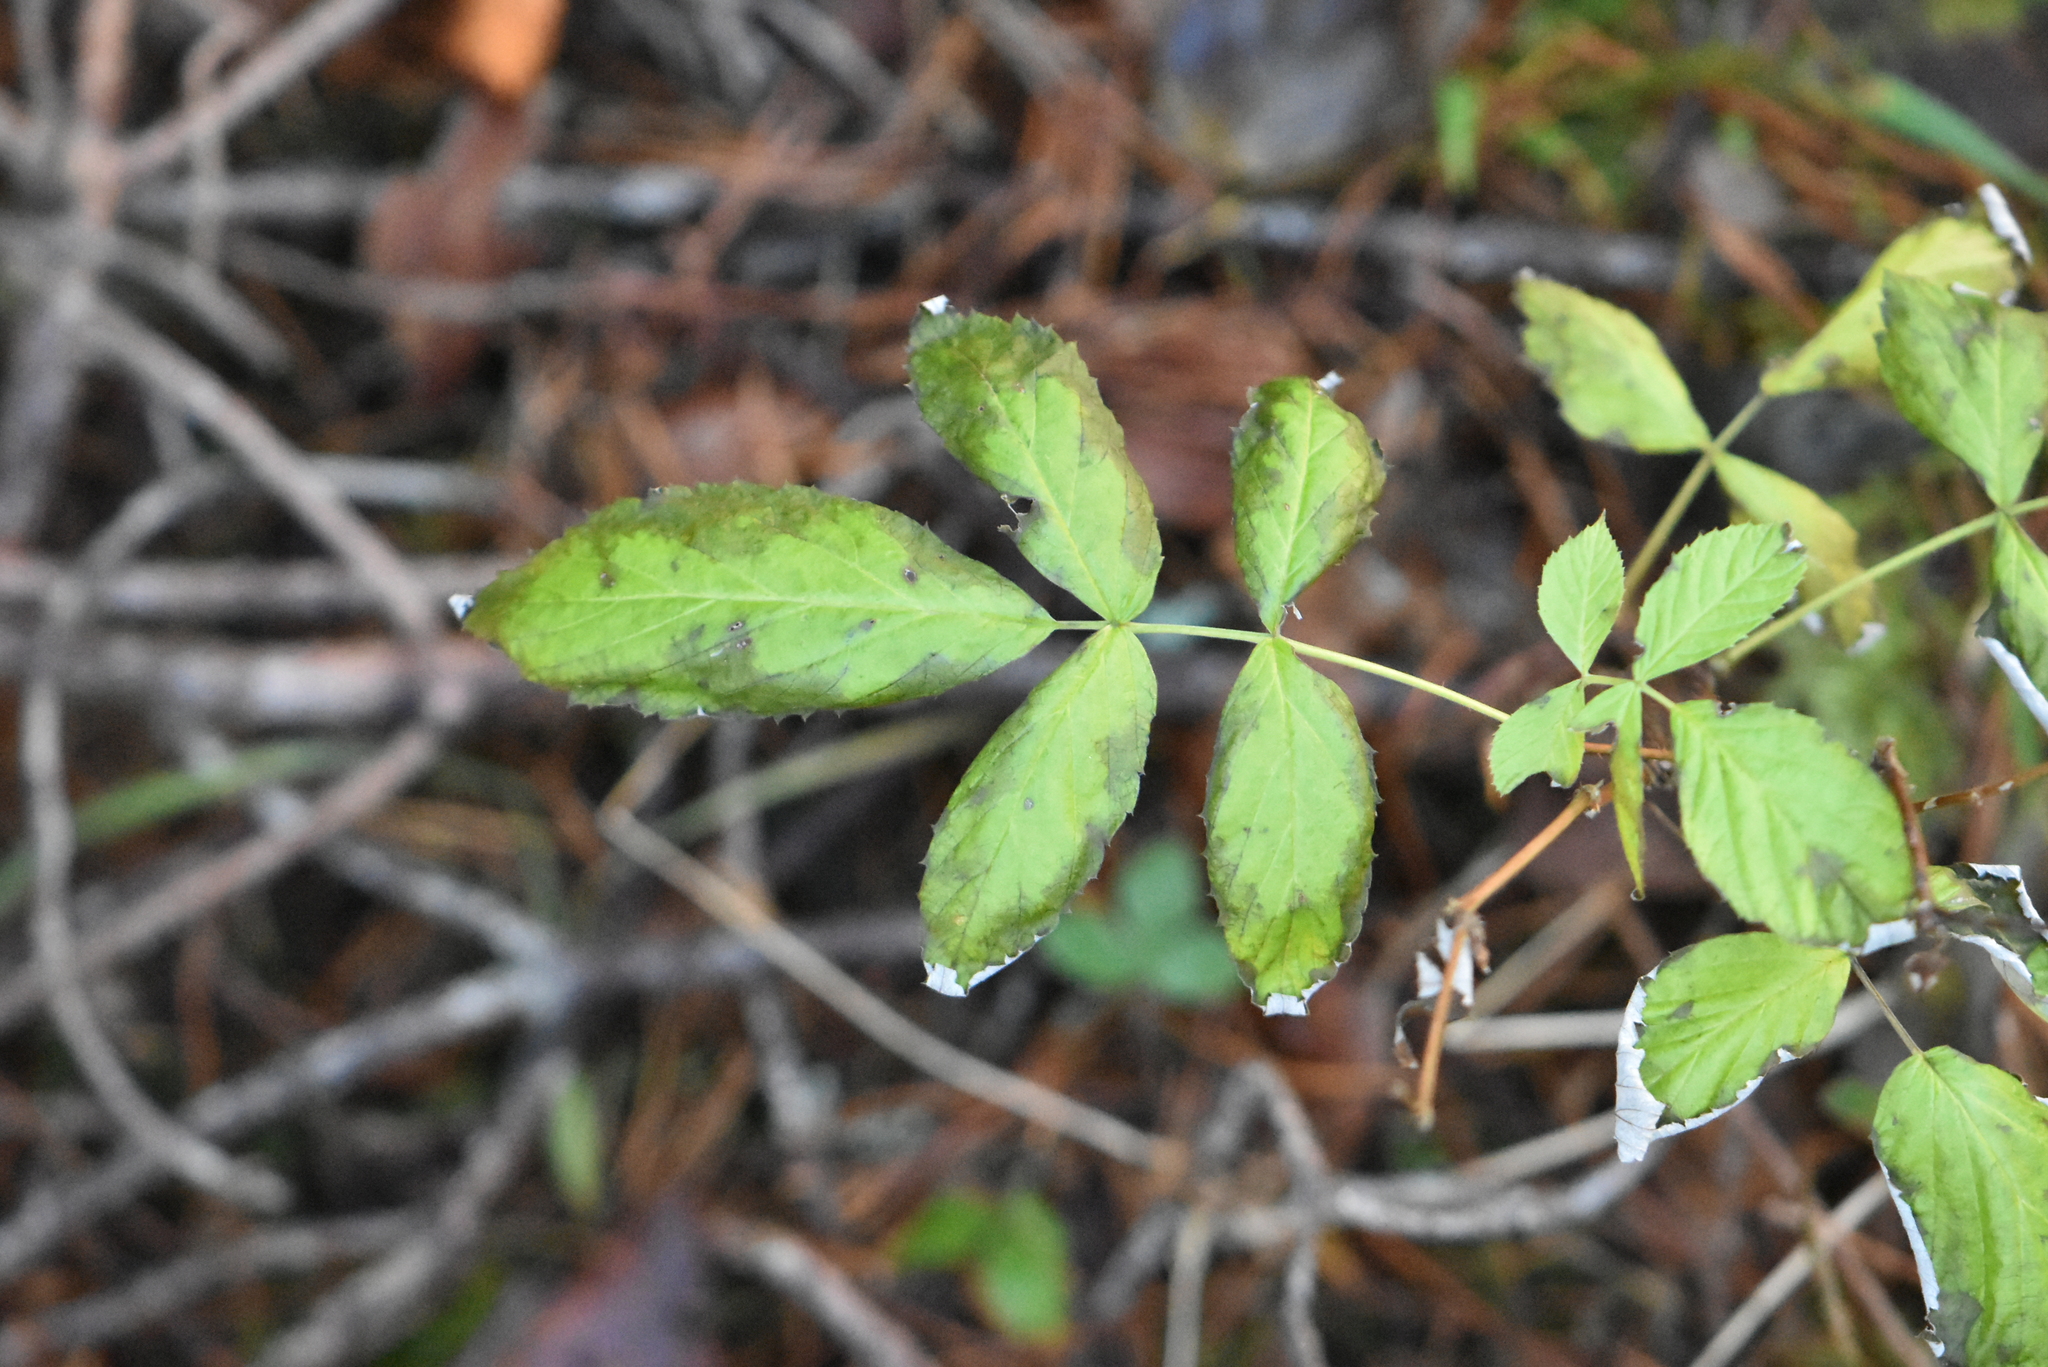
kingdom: Plantae
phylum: Tracheophyta
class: Magnoliopsida
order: Dipsacales
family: Viburnaceae
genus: Sambucus
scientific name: Sambucus racemosa
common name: Red-berried elder
